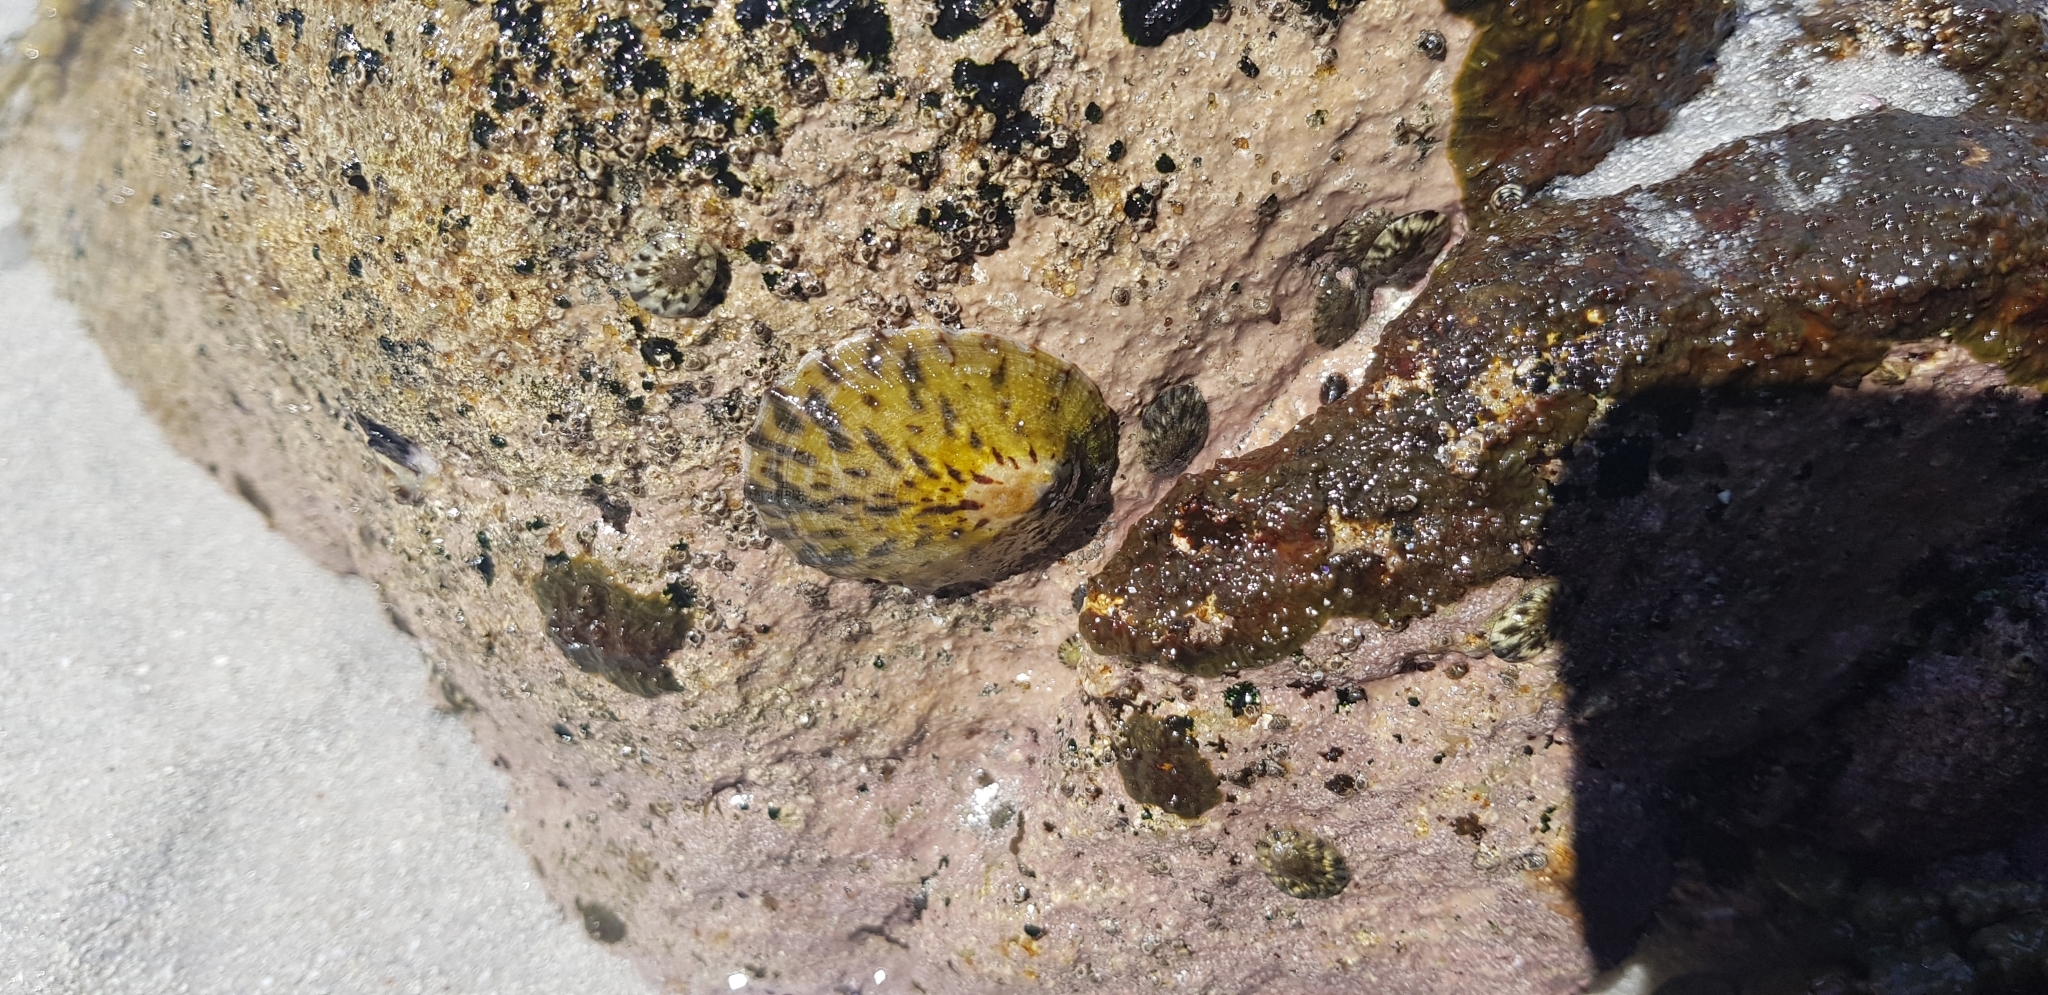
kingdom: Animalia
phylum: Mollusca
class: Gastropoda
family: Nacellidae
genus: Cellana
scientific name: Cellana radians
